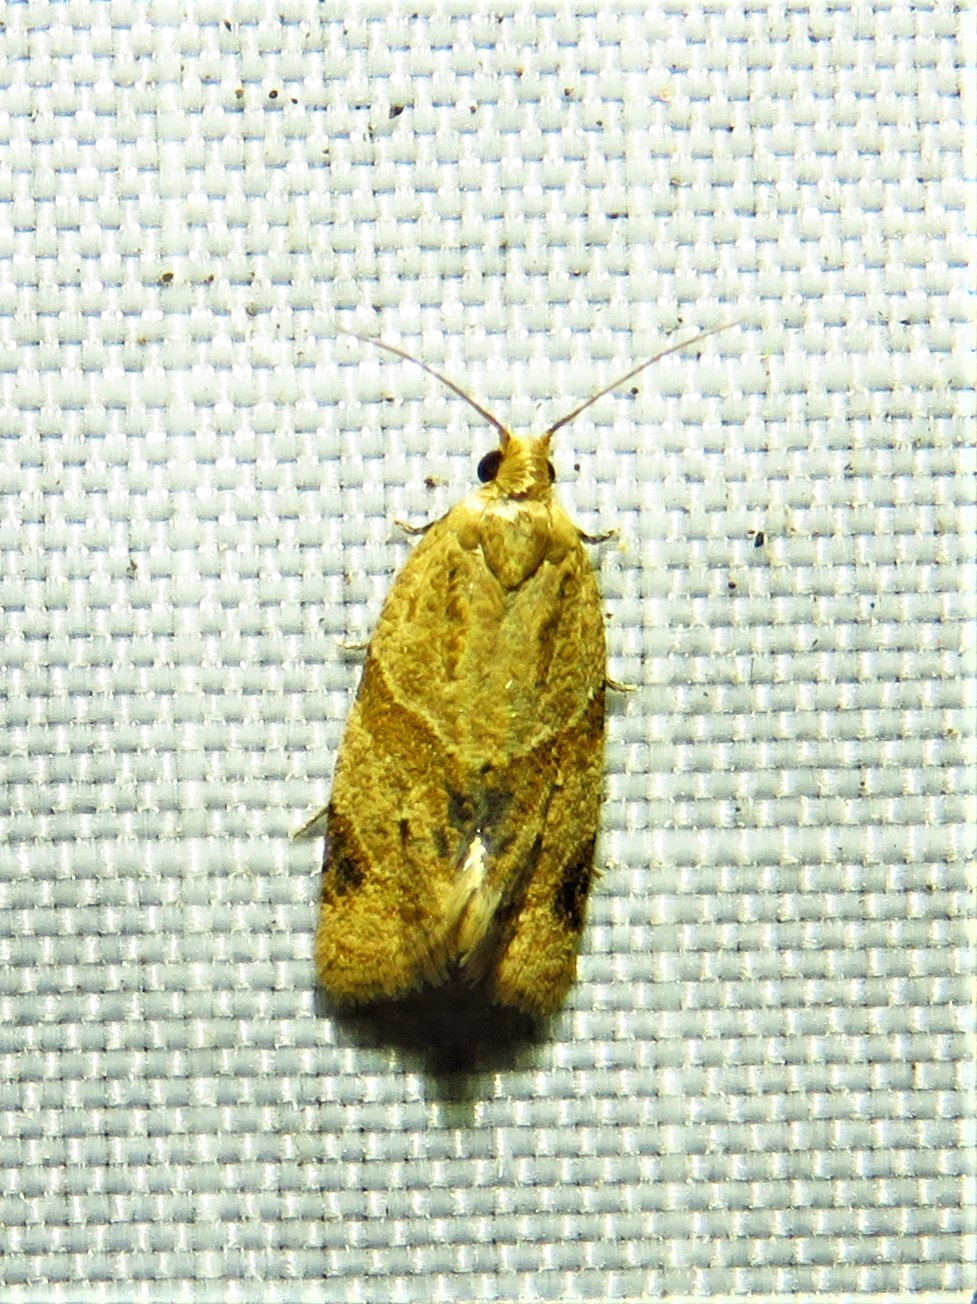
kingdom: Animalia
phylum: Arthropoda
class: Insecta
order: Lepidoptera
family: Tortricidae
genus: Clepsis
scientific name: Clepsis peritana
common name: Garden tortrix
